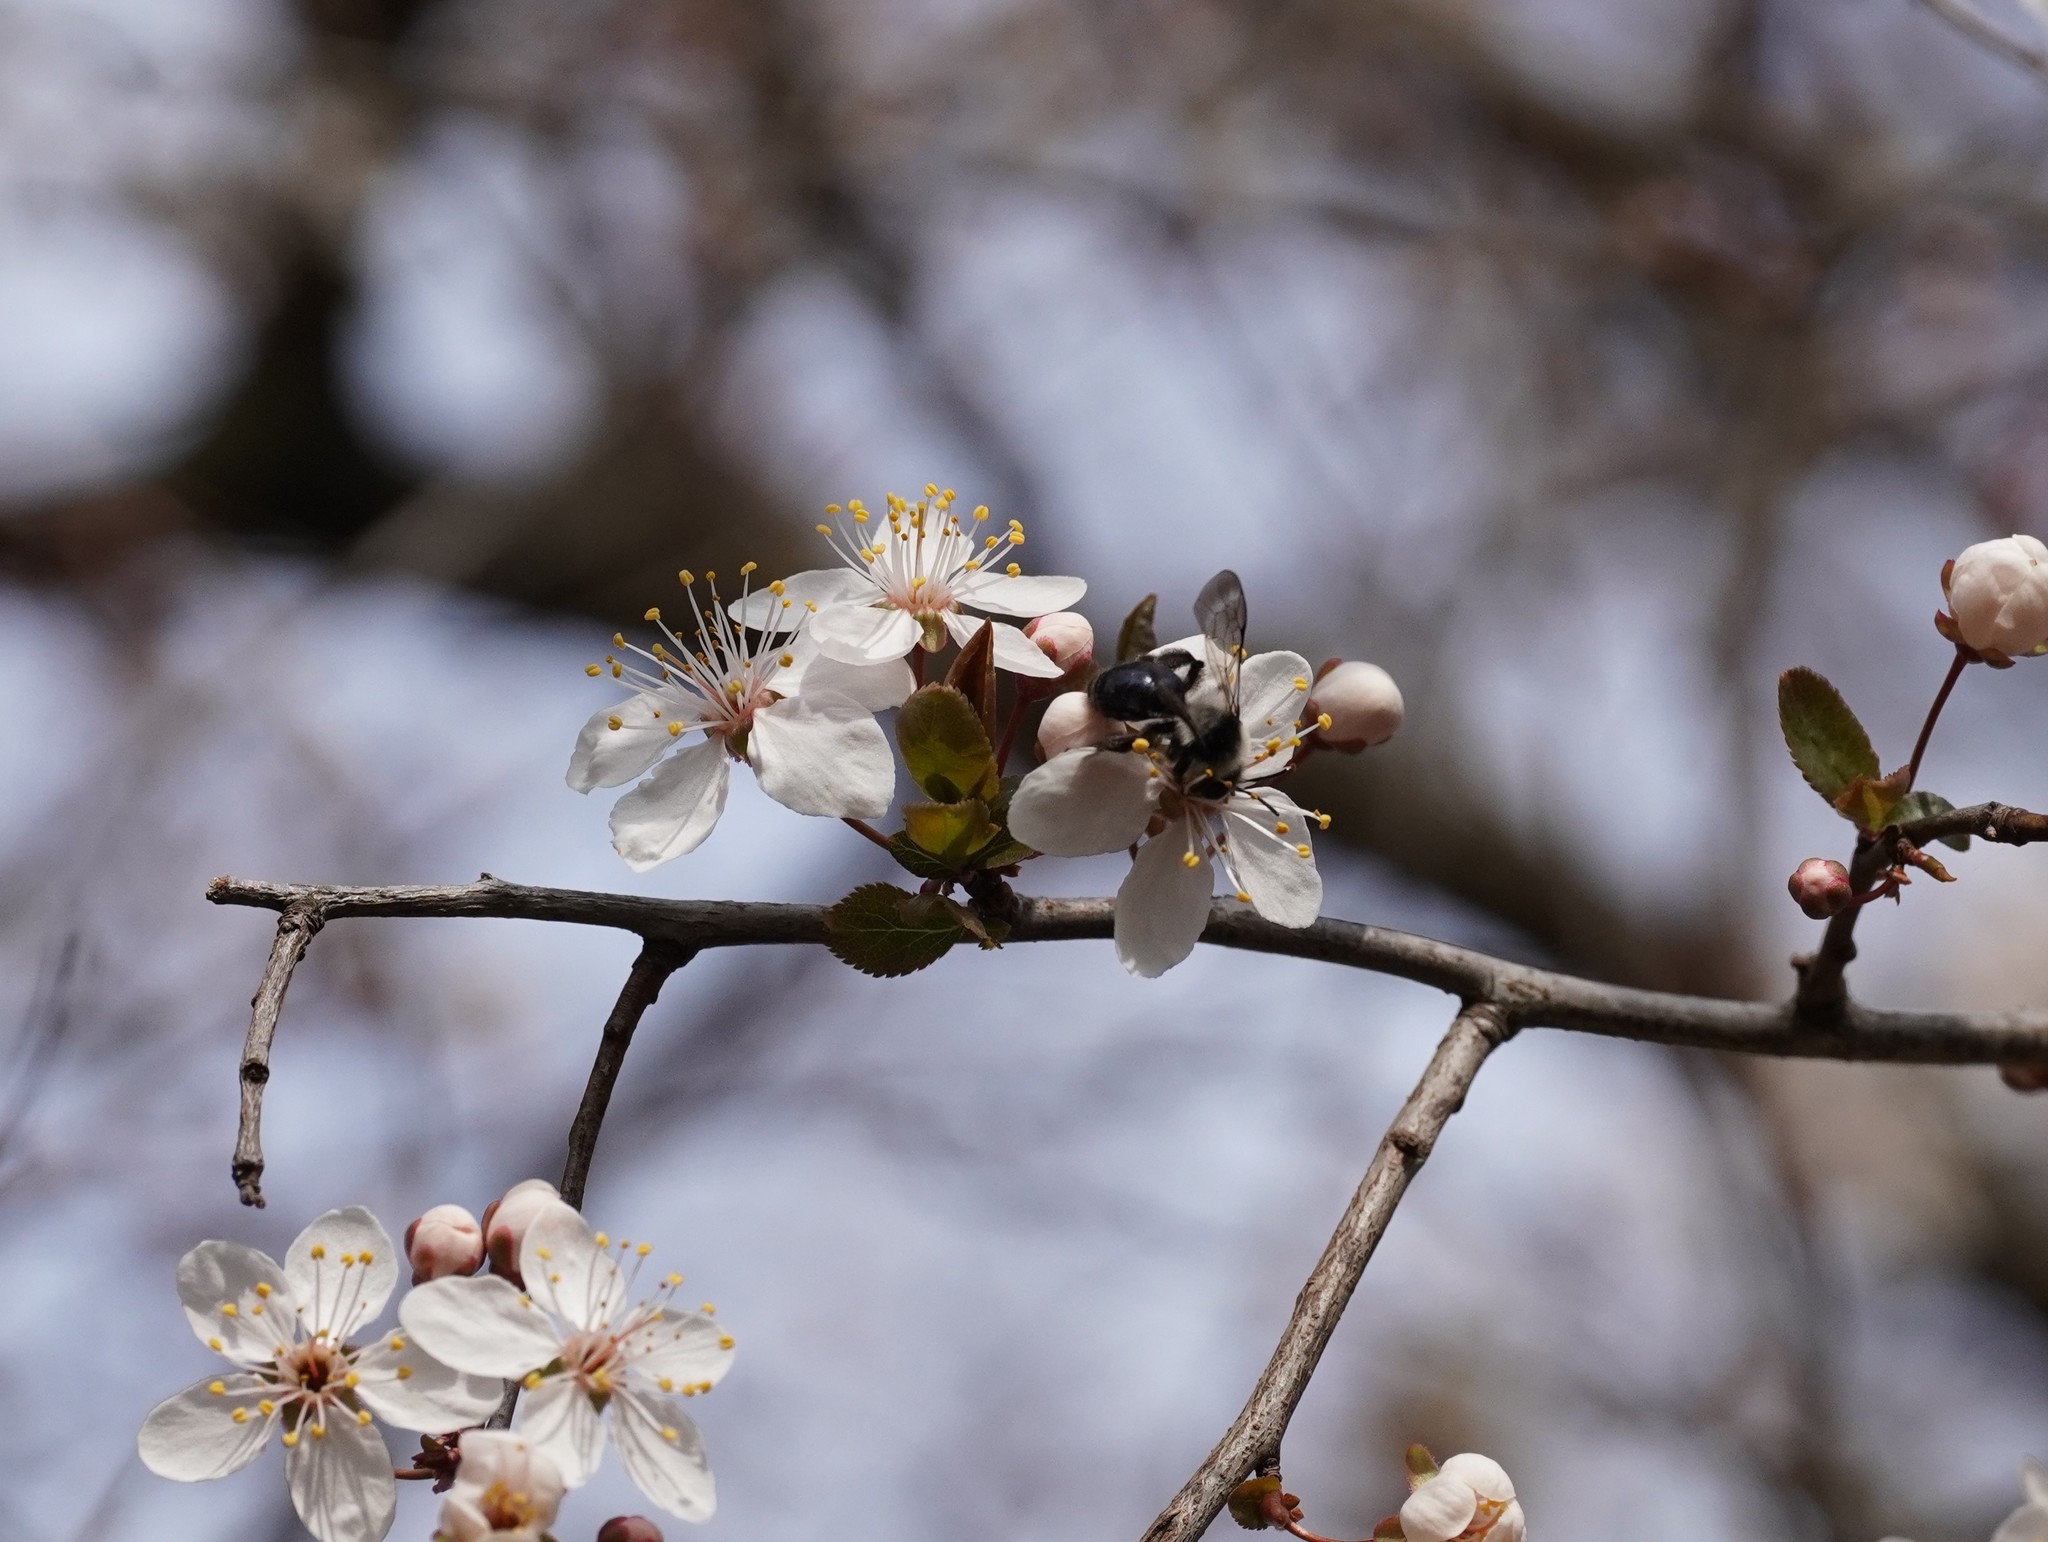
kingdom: Animalia
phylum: Arthropoda
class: Insecta
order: Hymenoptera
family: Andrenidae
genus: Andrena
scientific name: Andrena cineraria
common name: Ashy mining bee
